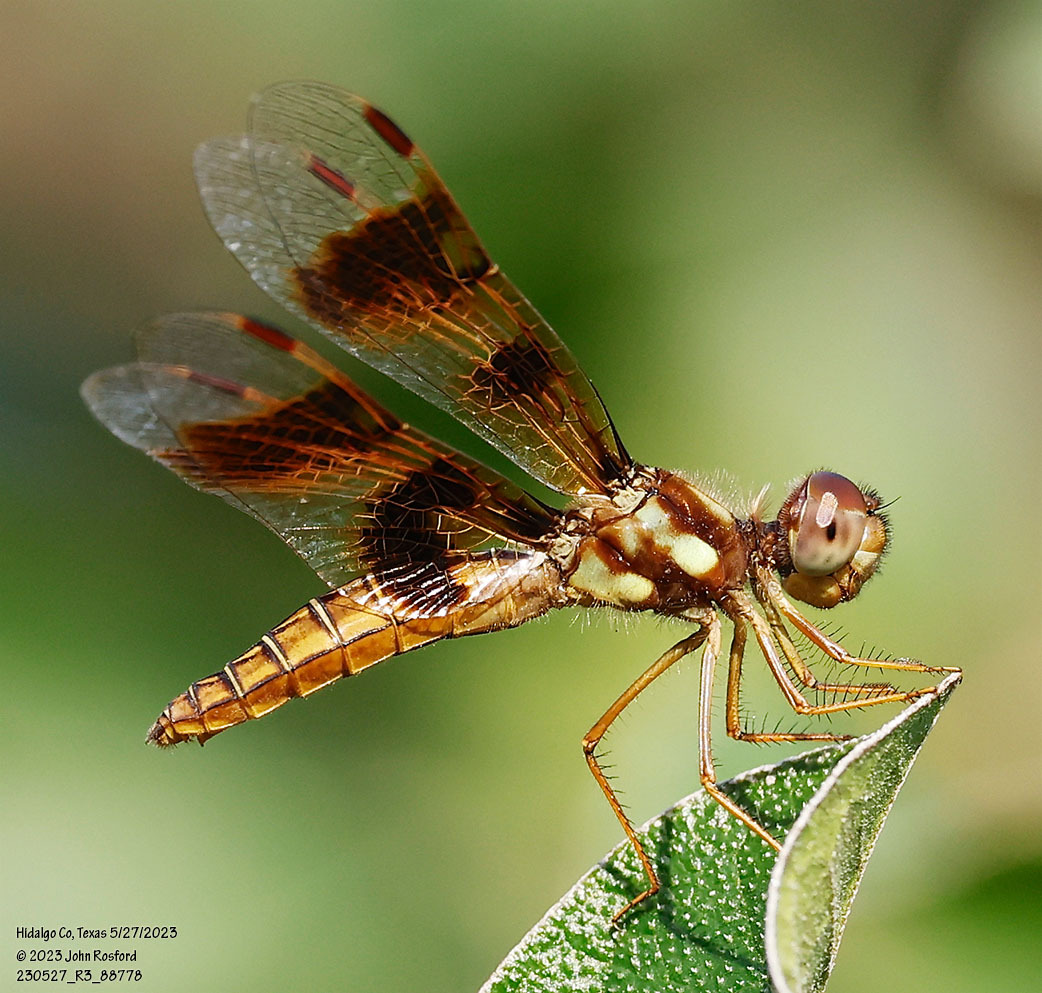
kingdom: Animalia
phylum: Arthropoda
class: Insecta
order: Odonata
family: Libellulidae
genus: Perithemis
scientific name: Perithemis tenera
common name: Eastern amberwing
